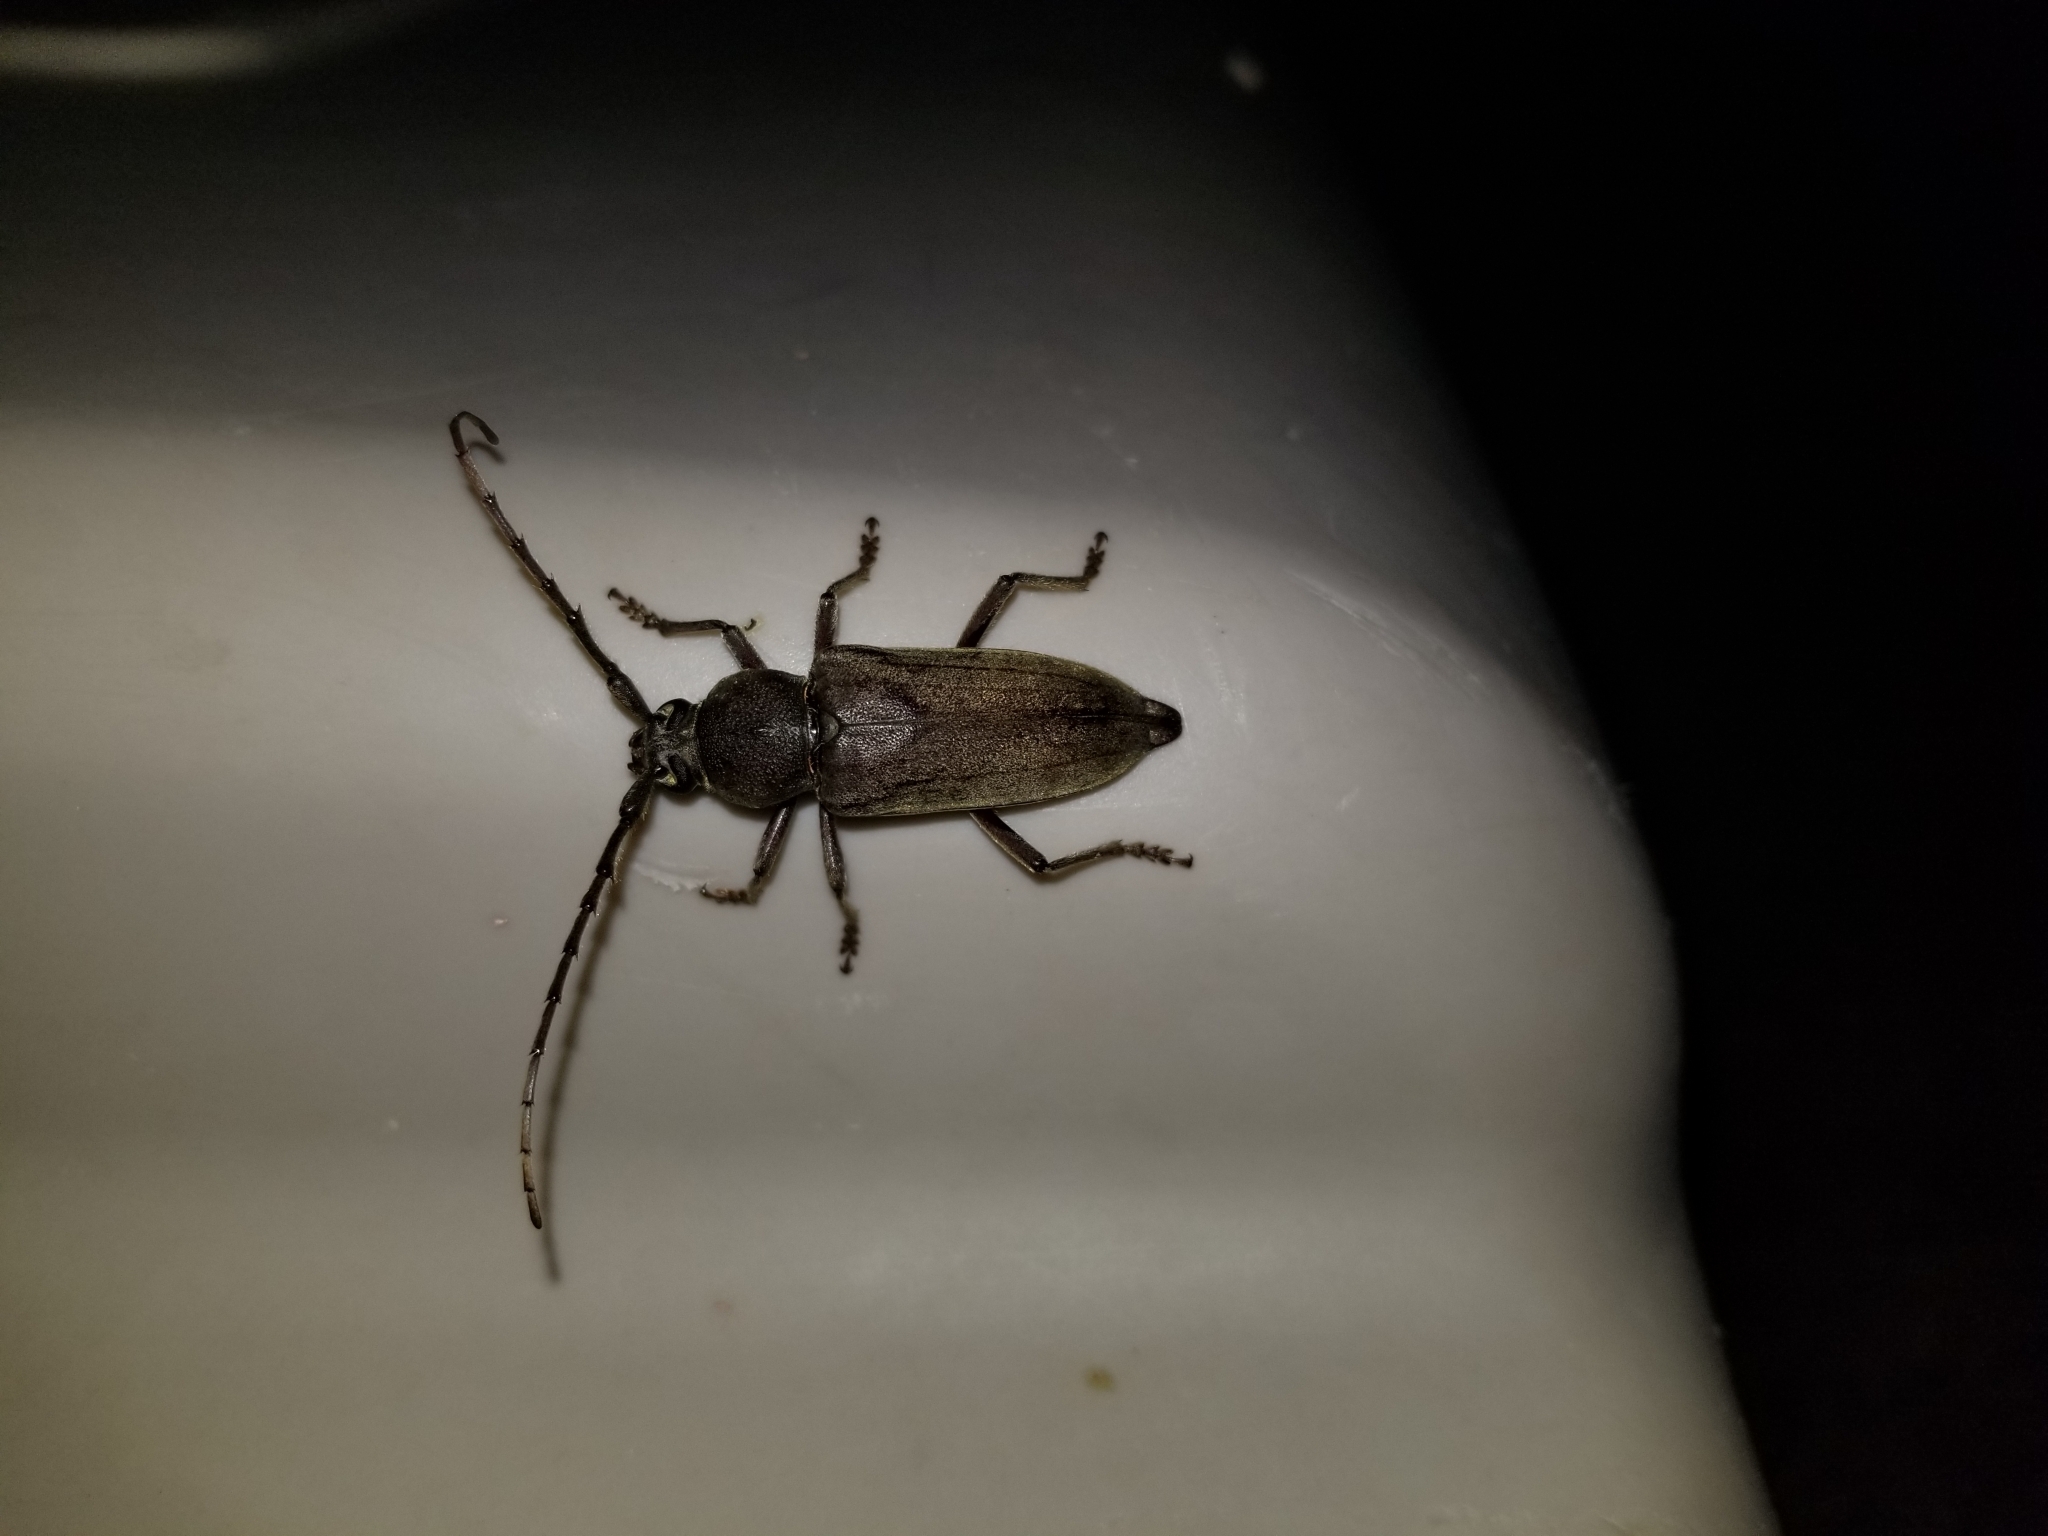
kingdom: Animalia
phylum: Arthropoda
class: Insecta
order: Coleoptera
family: Cerambycidae
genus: Enaphalodes
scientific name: Enaphalodes hispicornis
